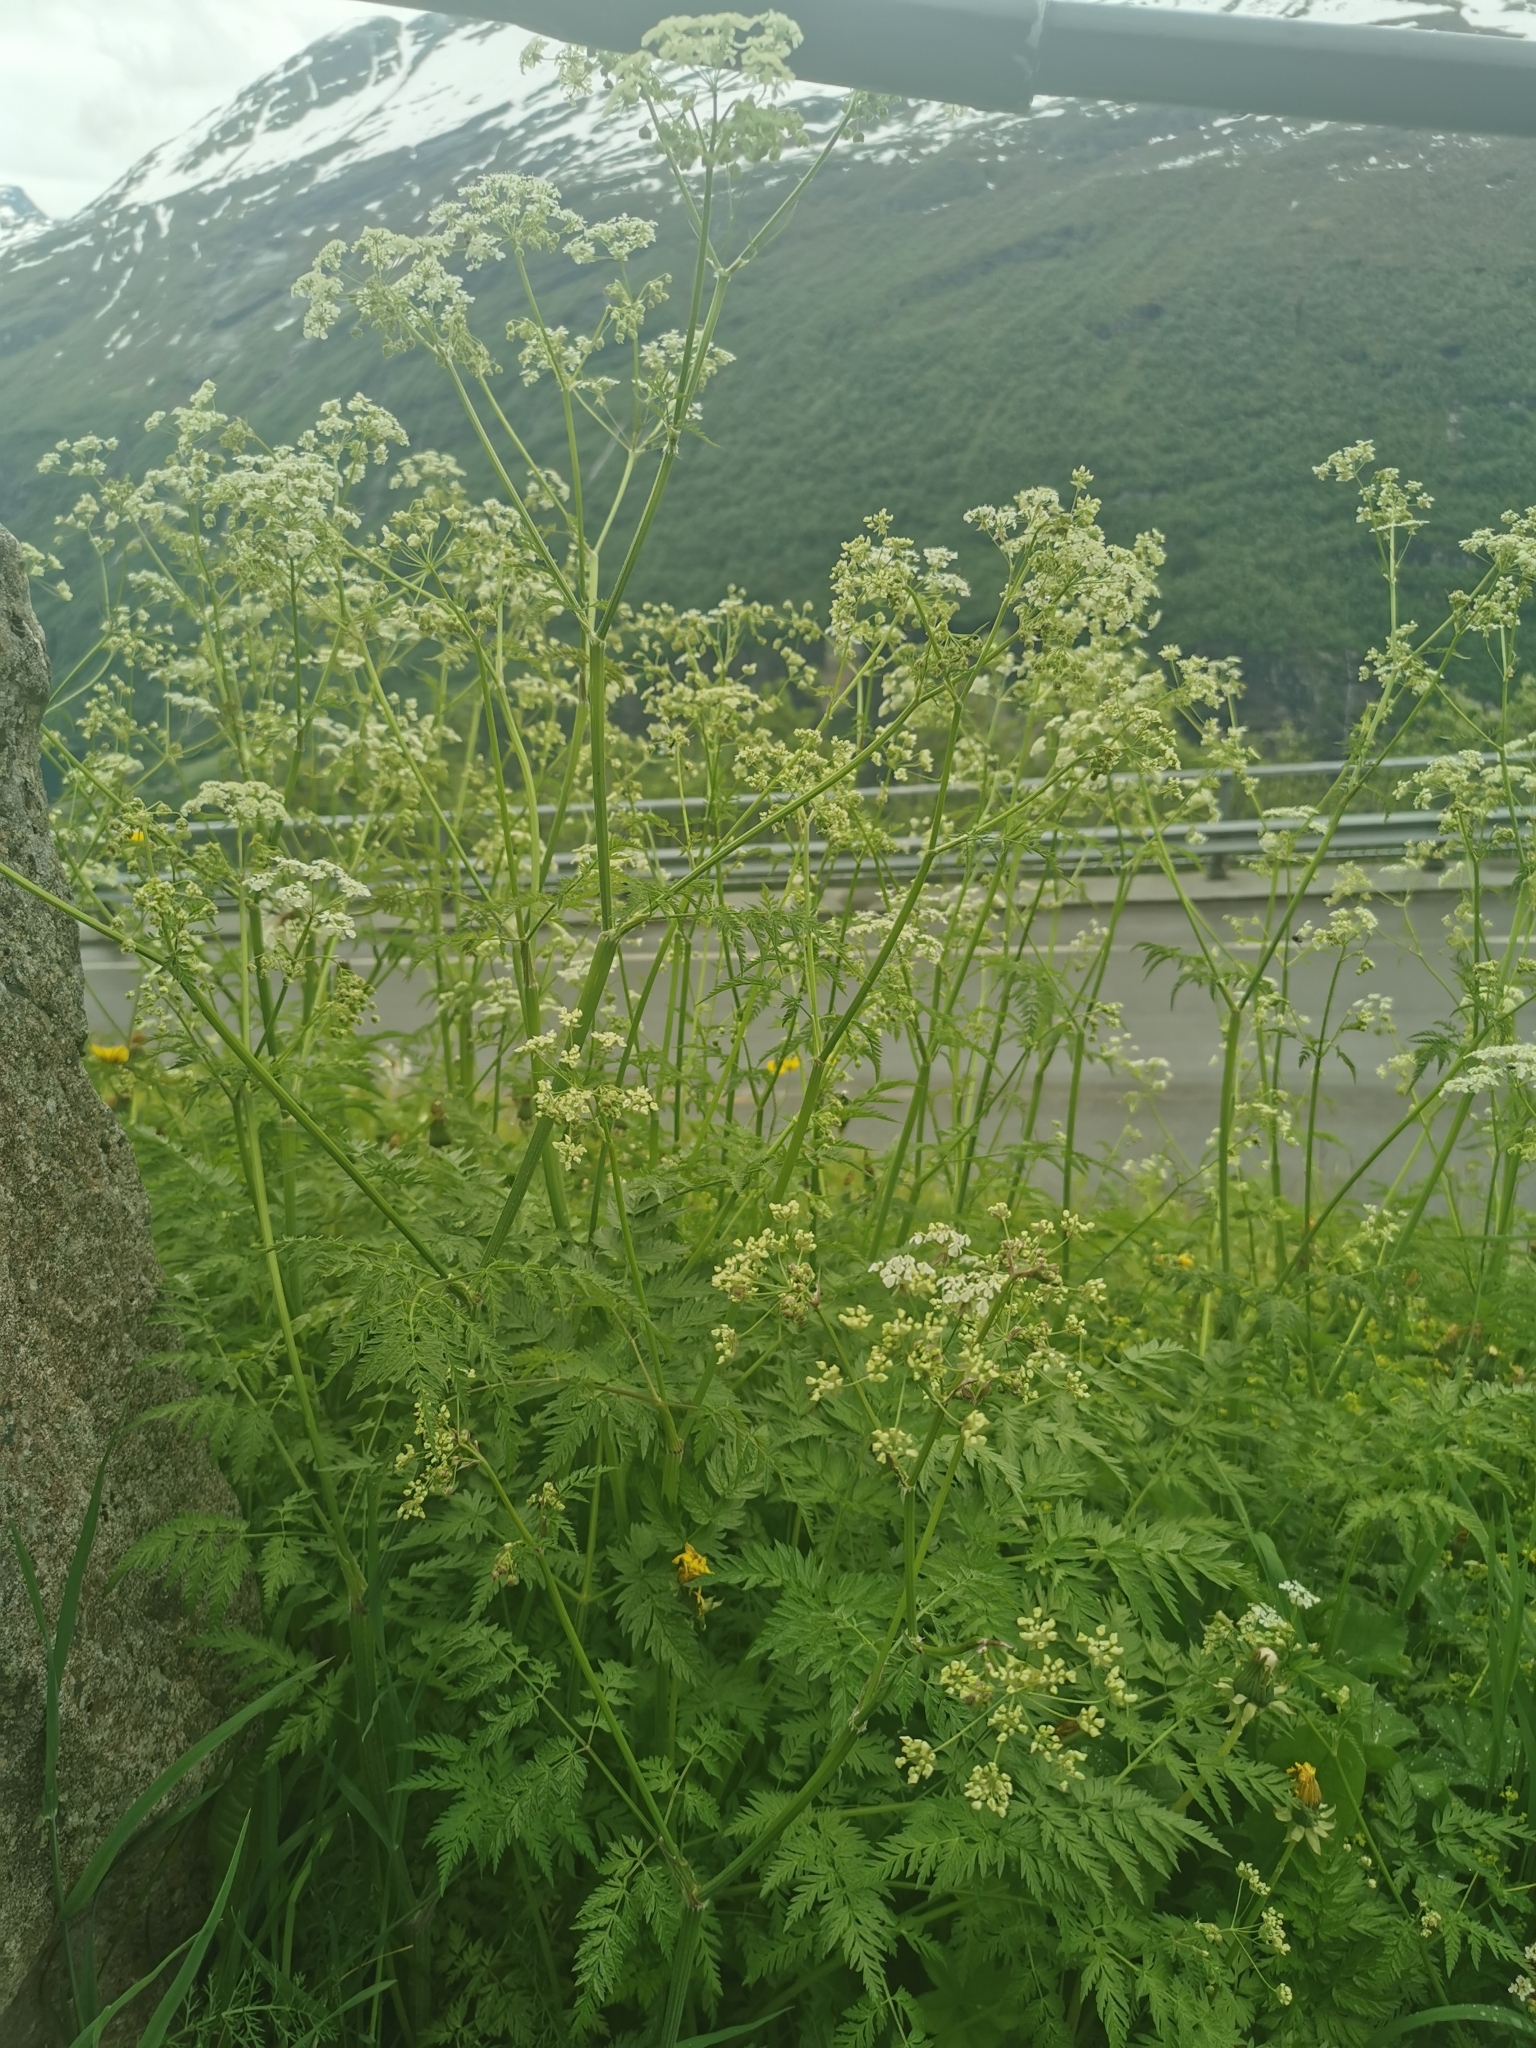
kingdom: Plantae
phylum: Tracheophyta
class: Magnoliopsida
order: Apiales
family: Apiaceae
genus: Anthriscus
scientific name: Anthriscus sylvestris
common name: Cow parsley
